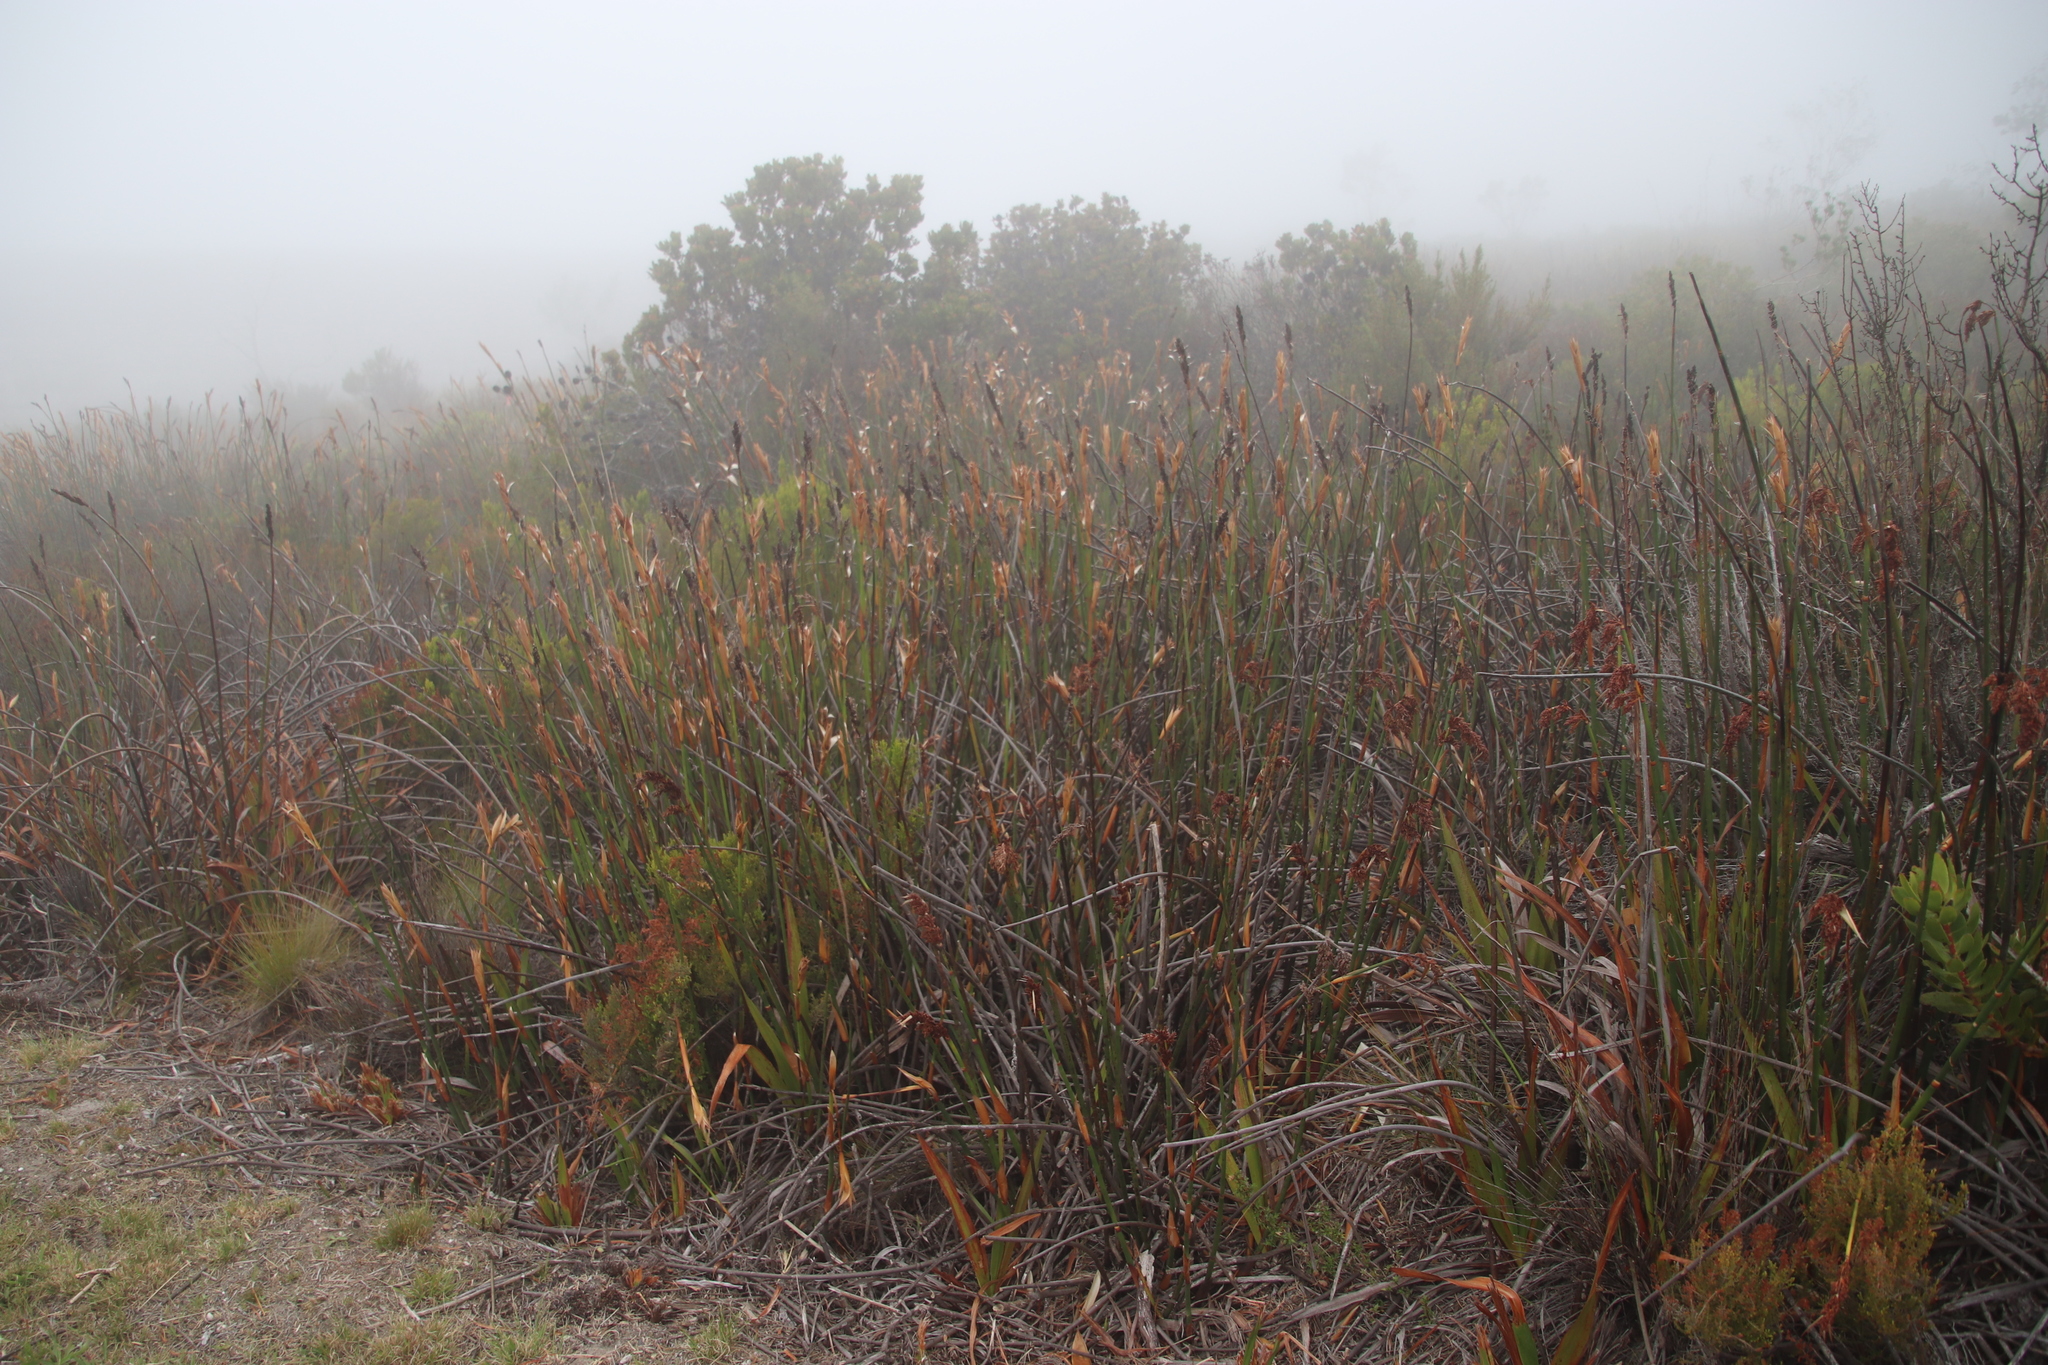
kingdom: Plantae
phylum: Tracheophyta
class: Liliopsida
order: Poales
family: Restionaceae
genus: Elegia
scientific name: Elegia mucronata
